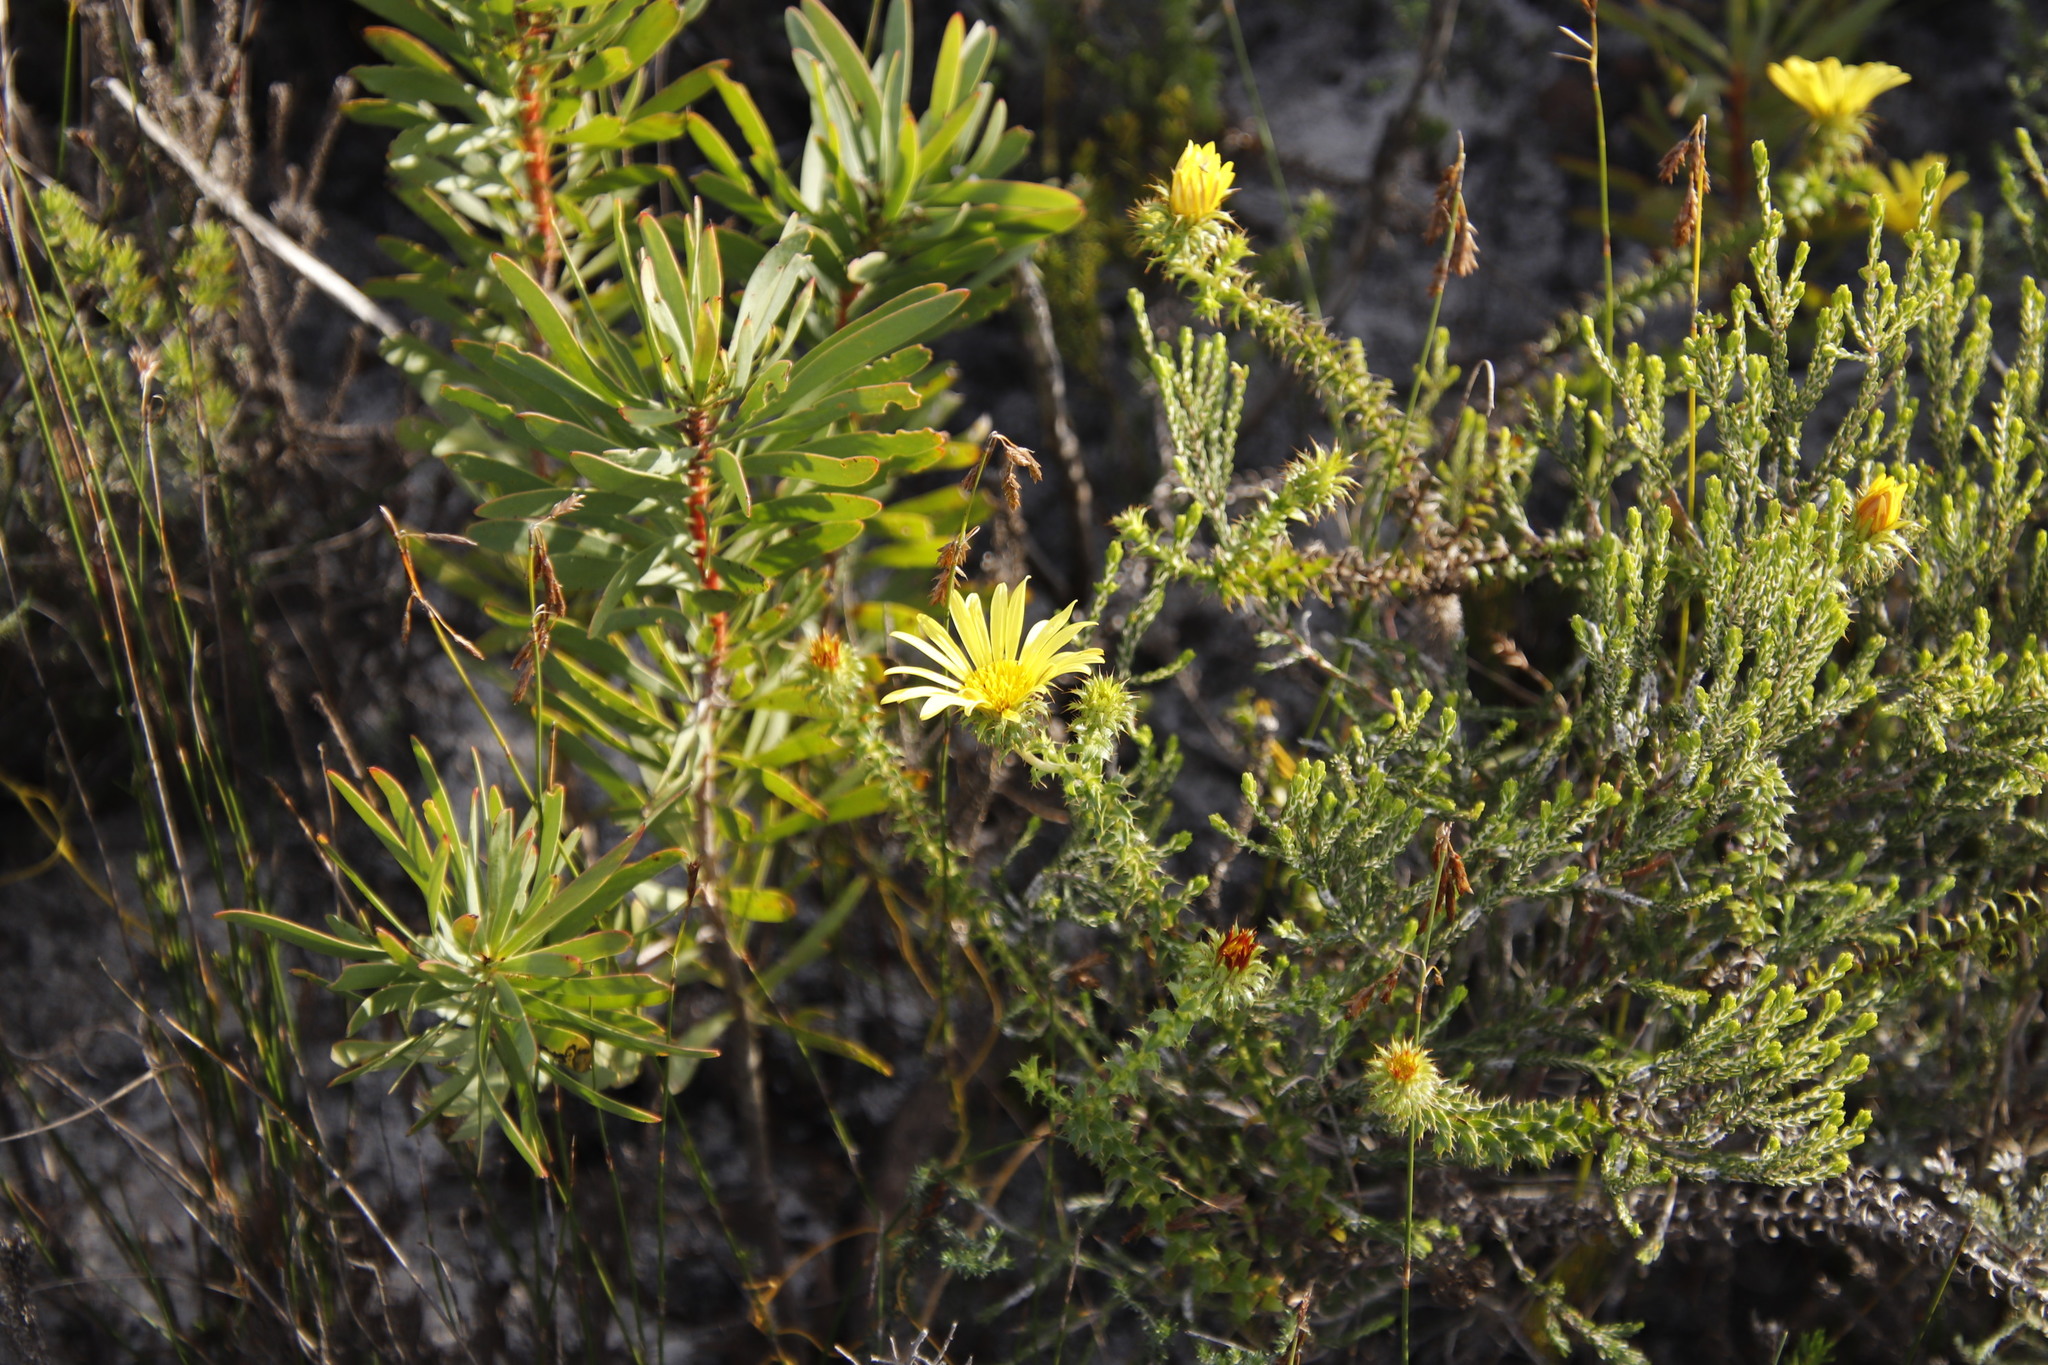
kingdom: Plantae
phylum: Tracheophyta
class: Magnoliopsida
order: Asterales
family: Asteraceae
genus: Cullumia
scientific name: Cullumia setosa
